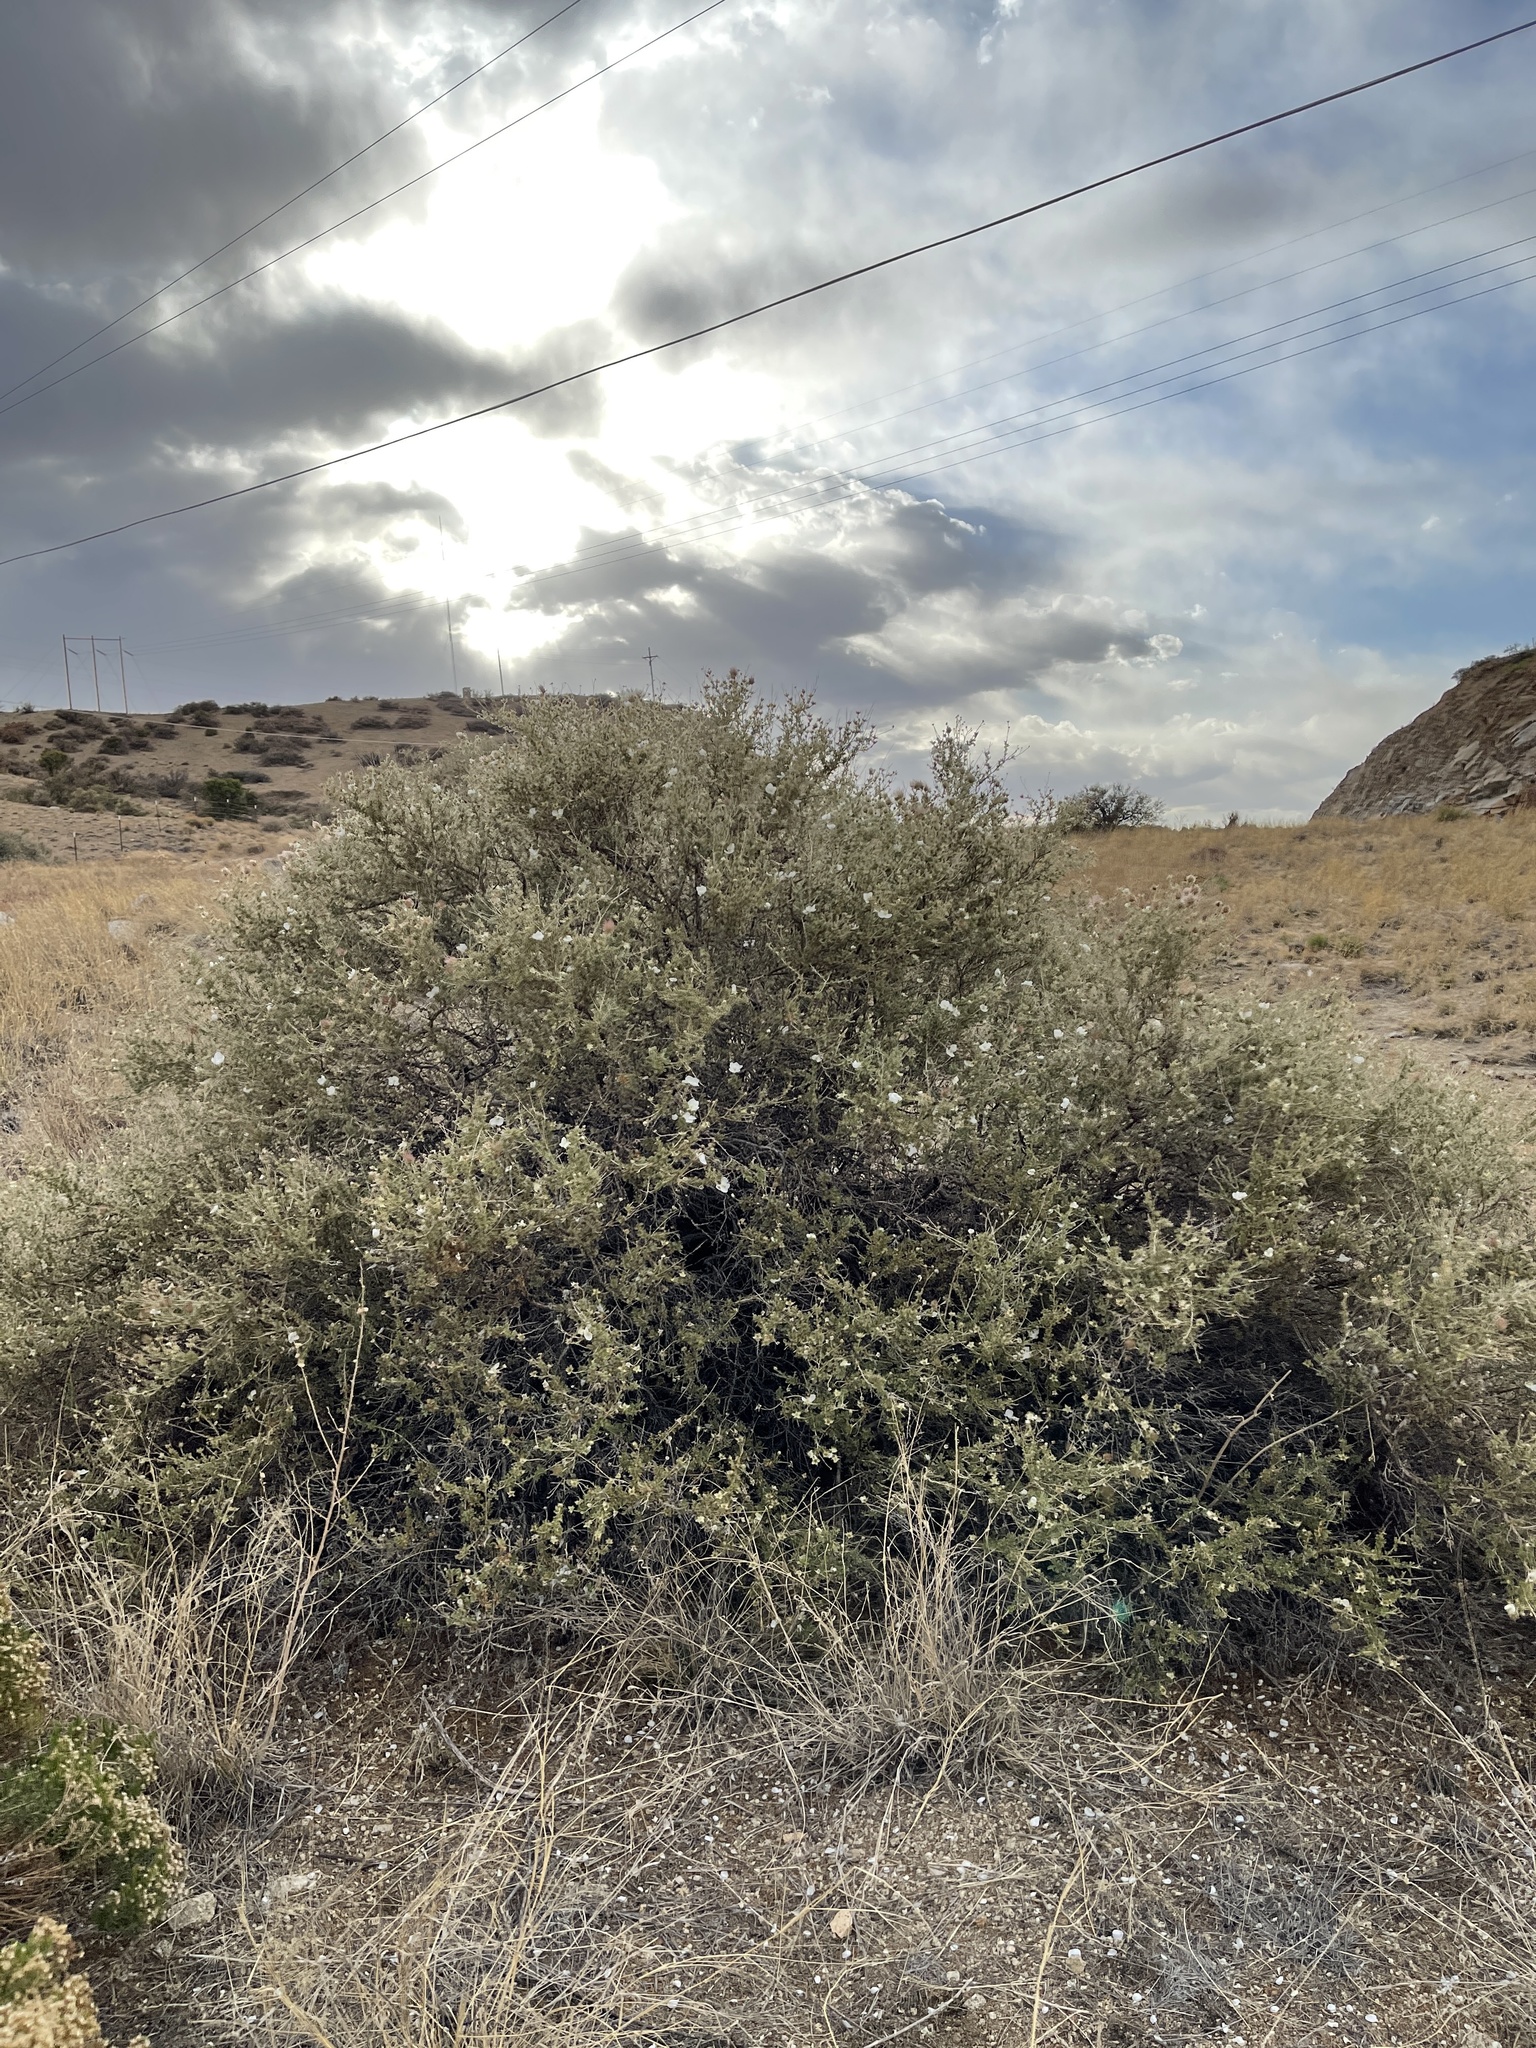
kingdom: Plantae
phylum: Tracheophyta
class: Magnoliopsida
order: Rosales
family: Rosaceae
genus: Fallugia
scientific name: Fallugia paradoxa
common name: Apache-plume
